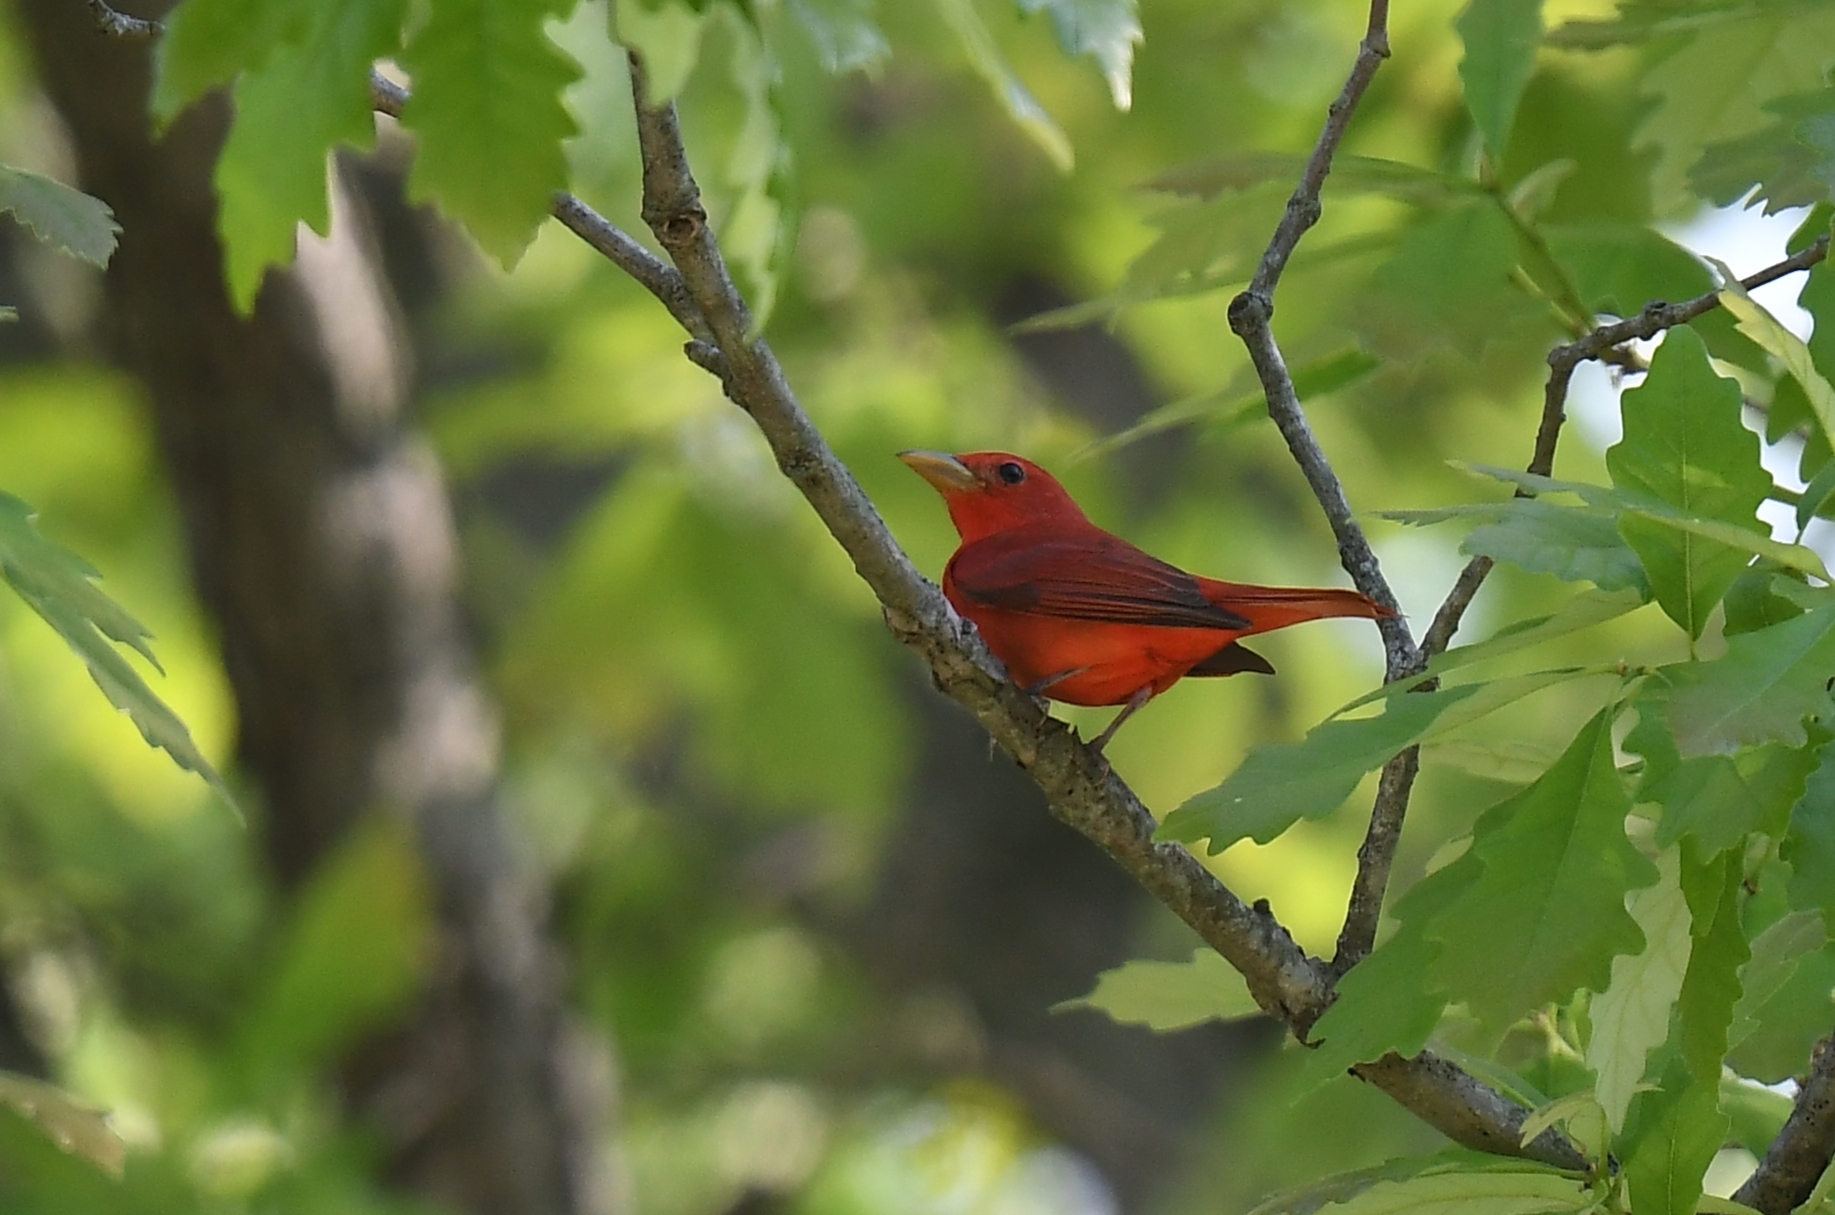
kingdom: Animalia
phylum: Chordata
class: Aves
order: Passeriformes
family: Cardinalidae
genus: Piranga
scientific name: Piranga rubra
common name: Summer tanager
